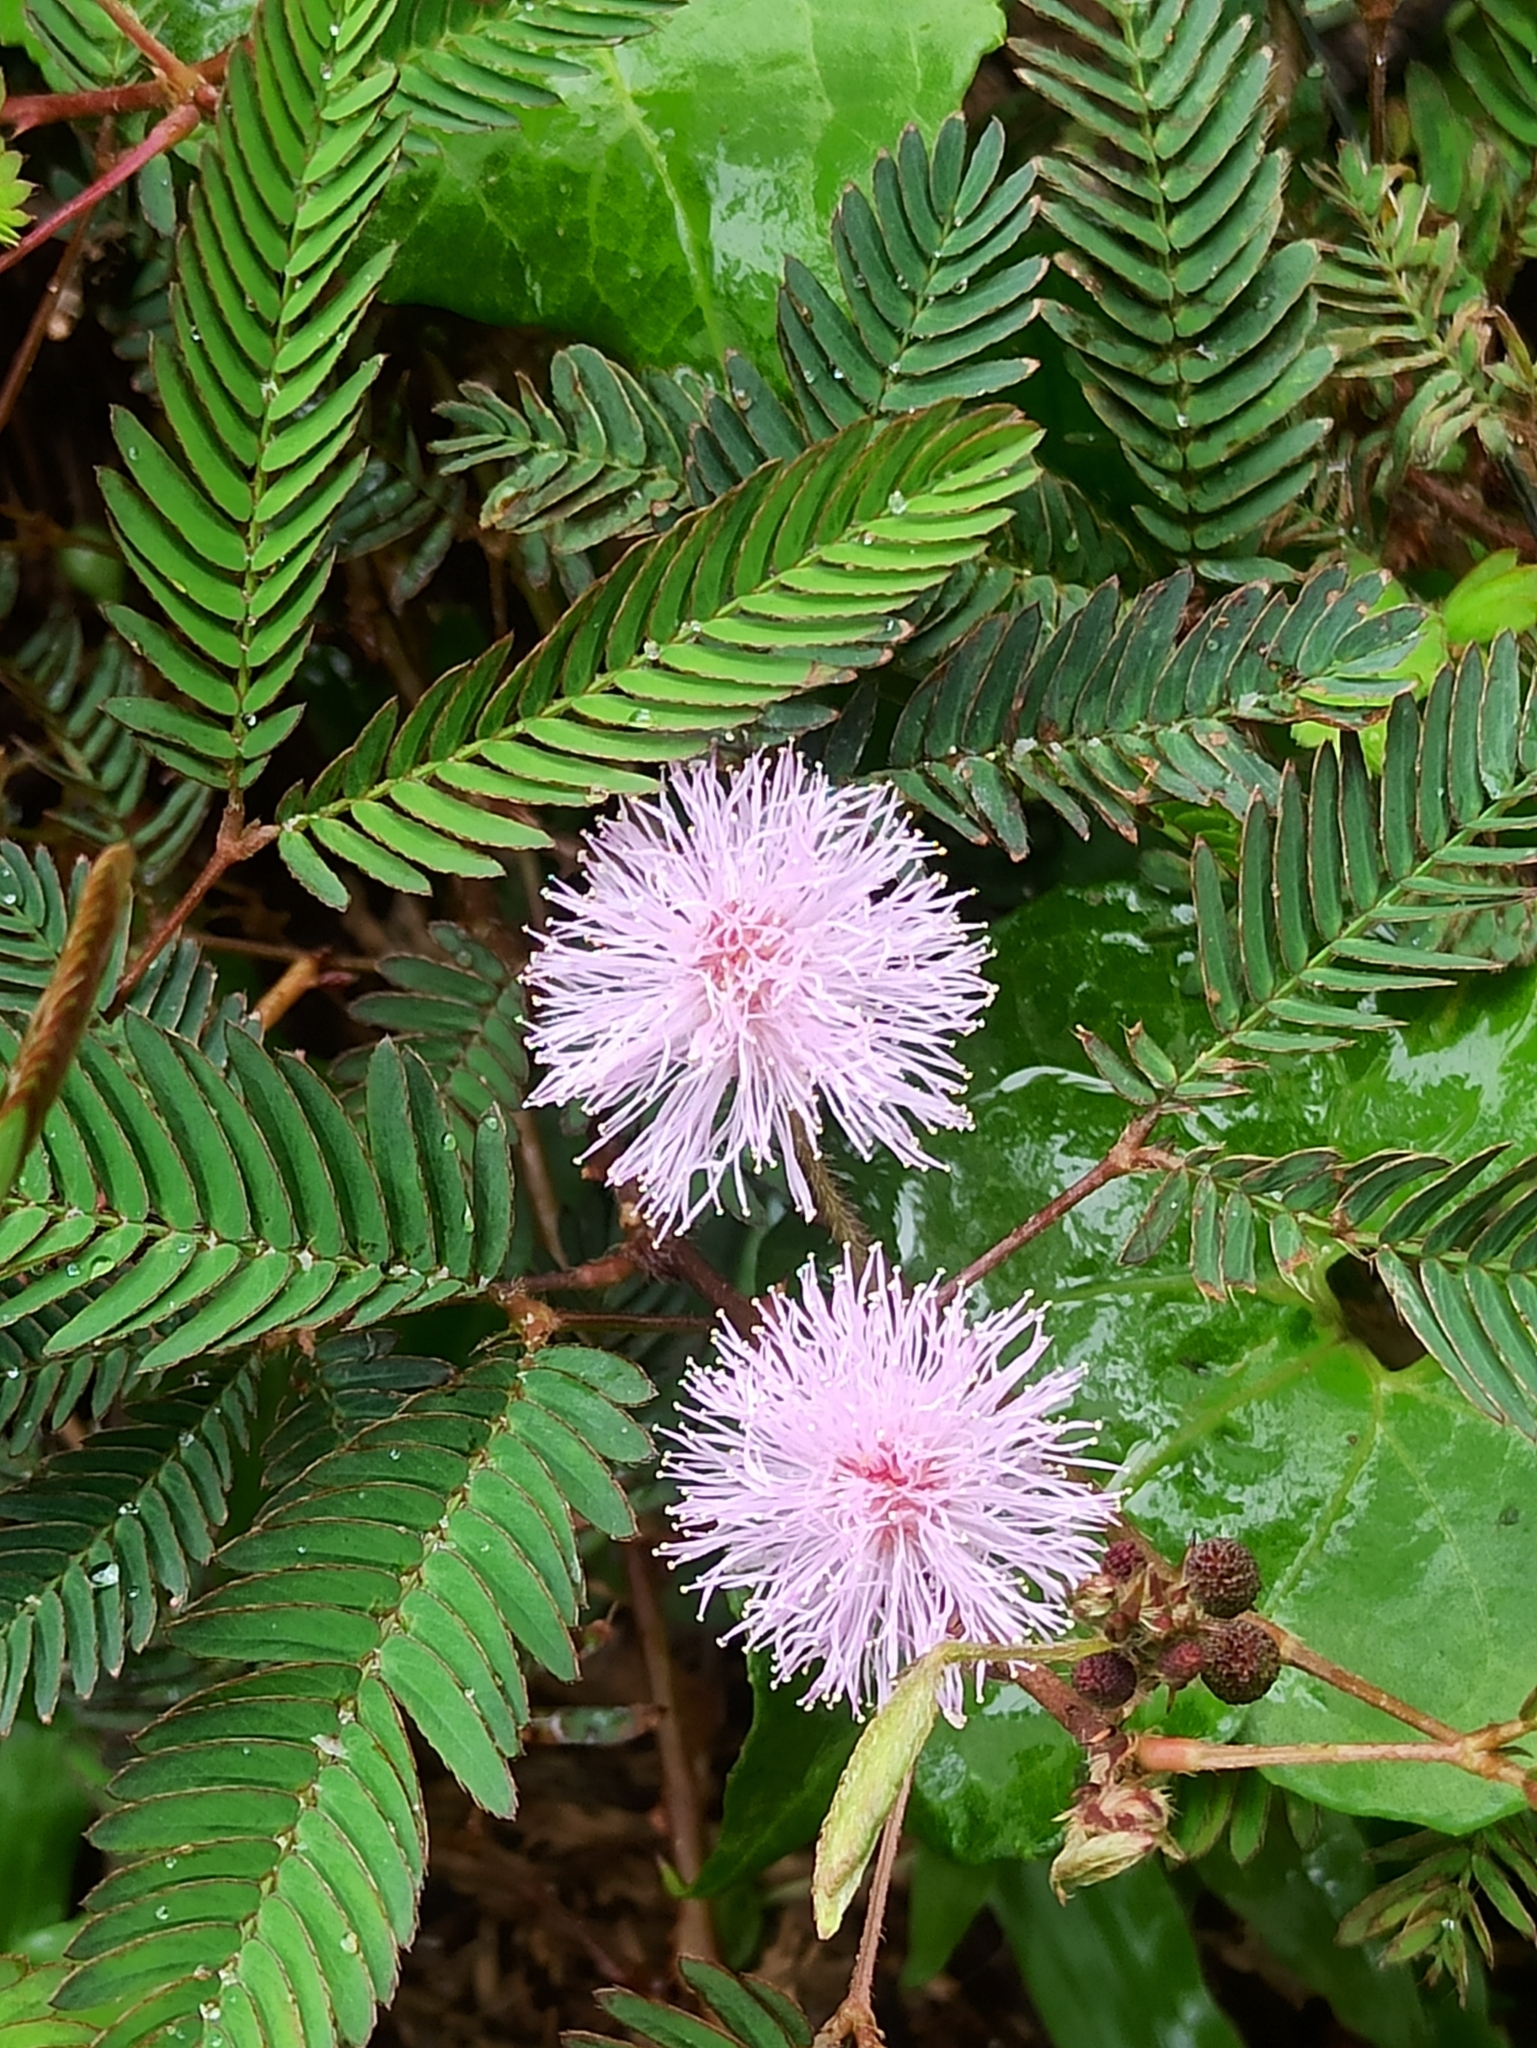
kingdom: Plantae
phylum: Tracheophyta
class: Magnoliopsida
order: Fabales
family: Fabaceae
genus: Mimosa
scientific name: Mimosa pudica
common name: Sensitive plant
